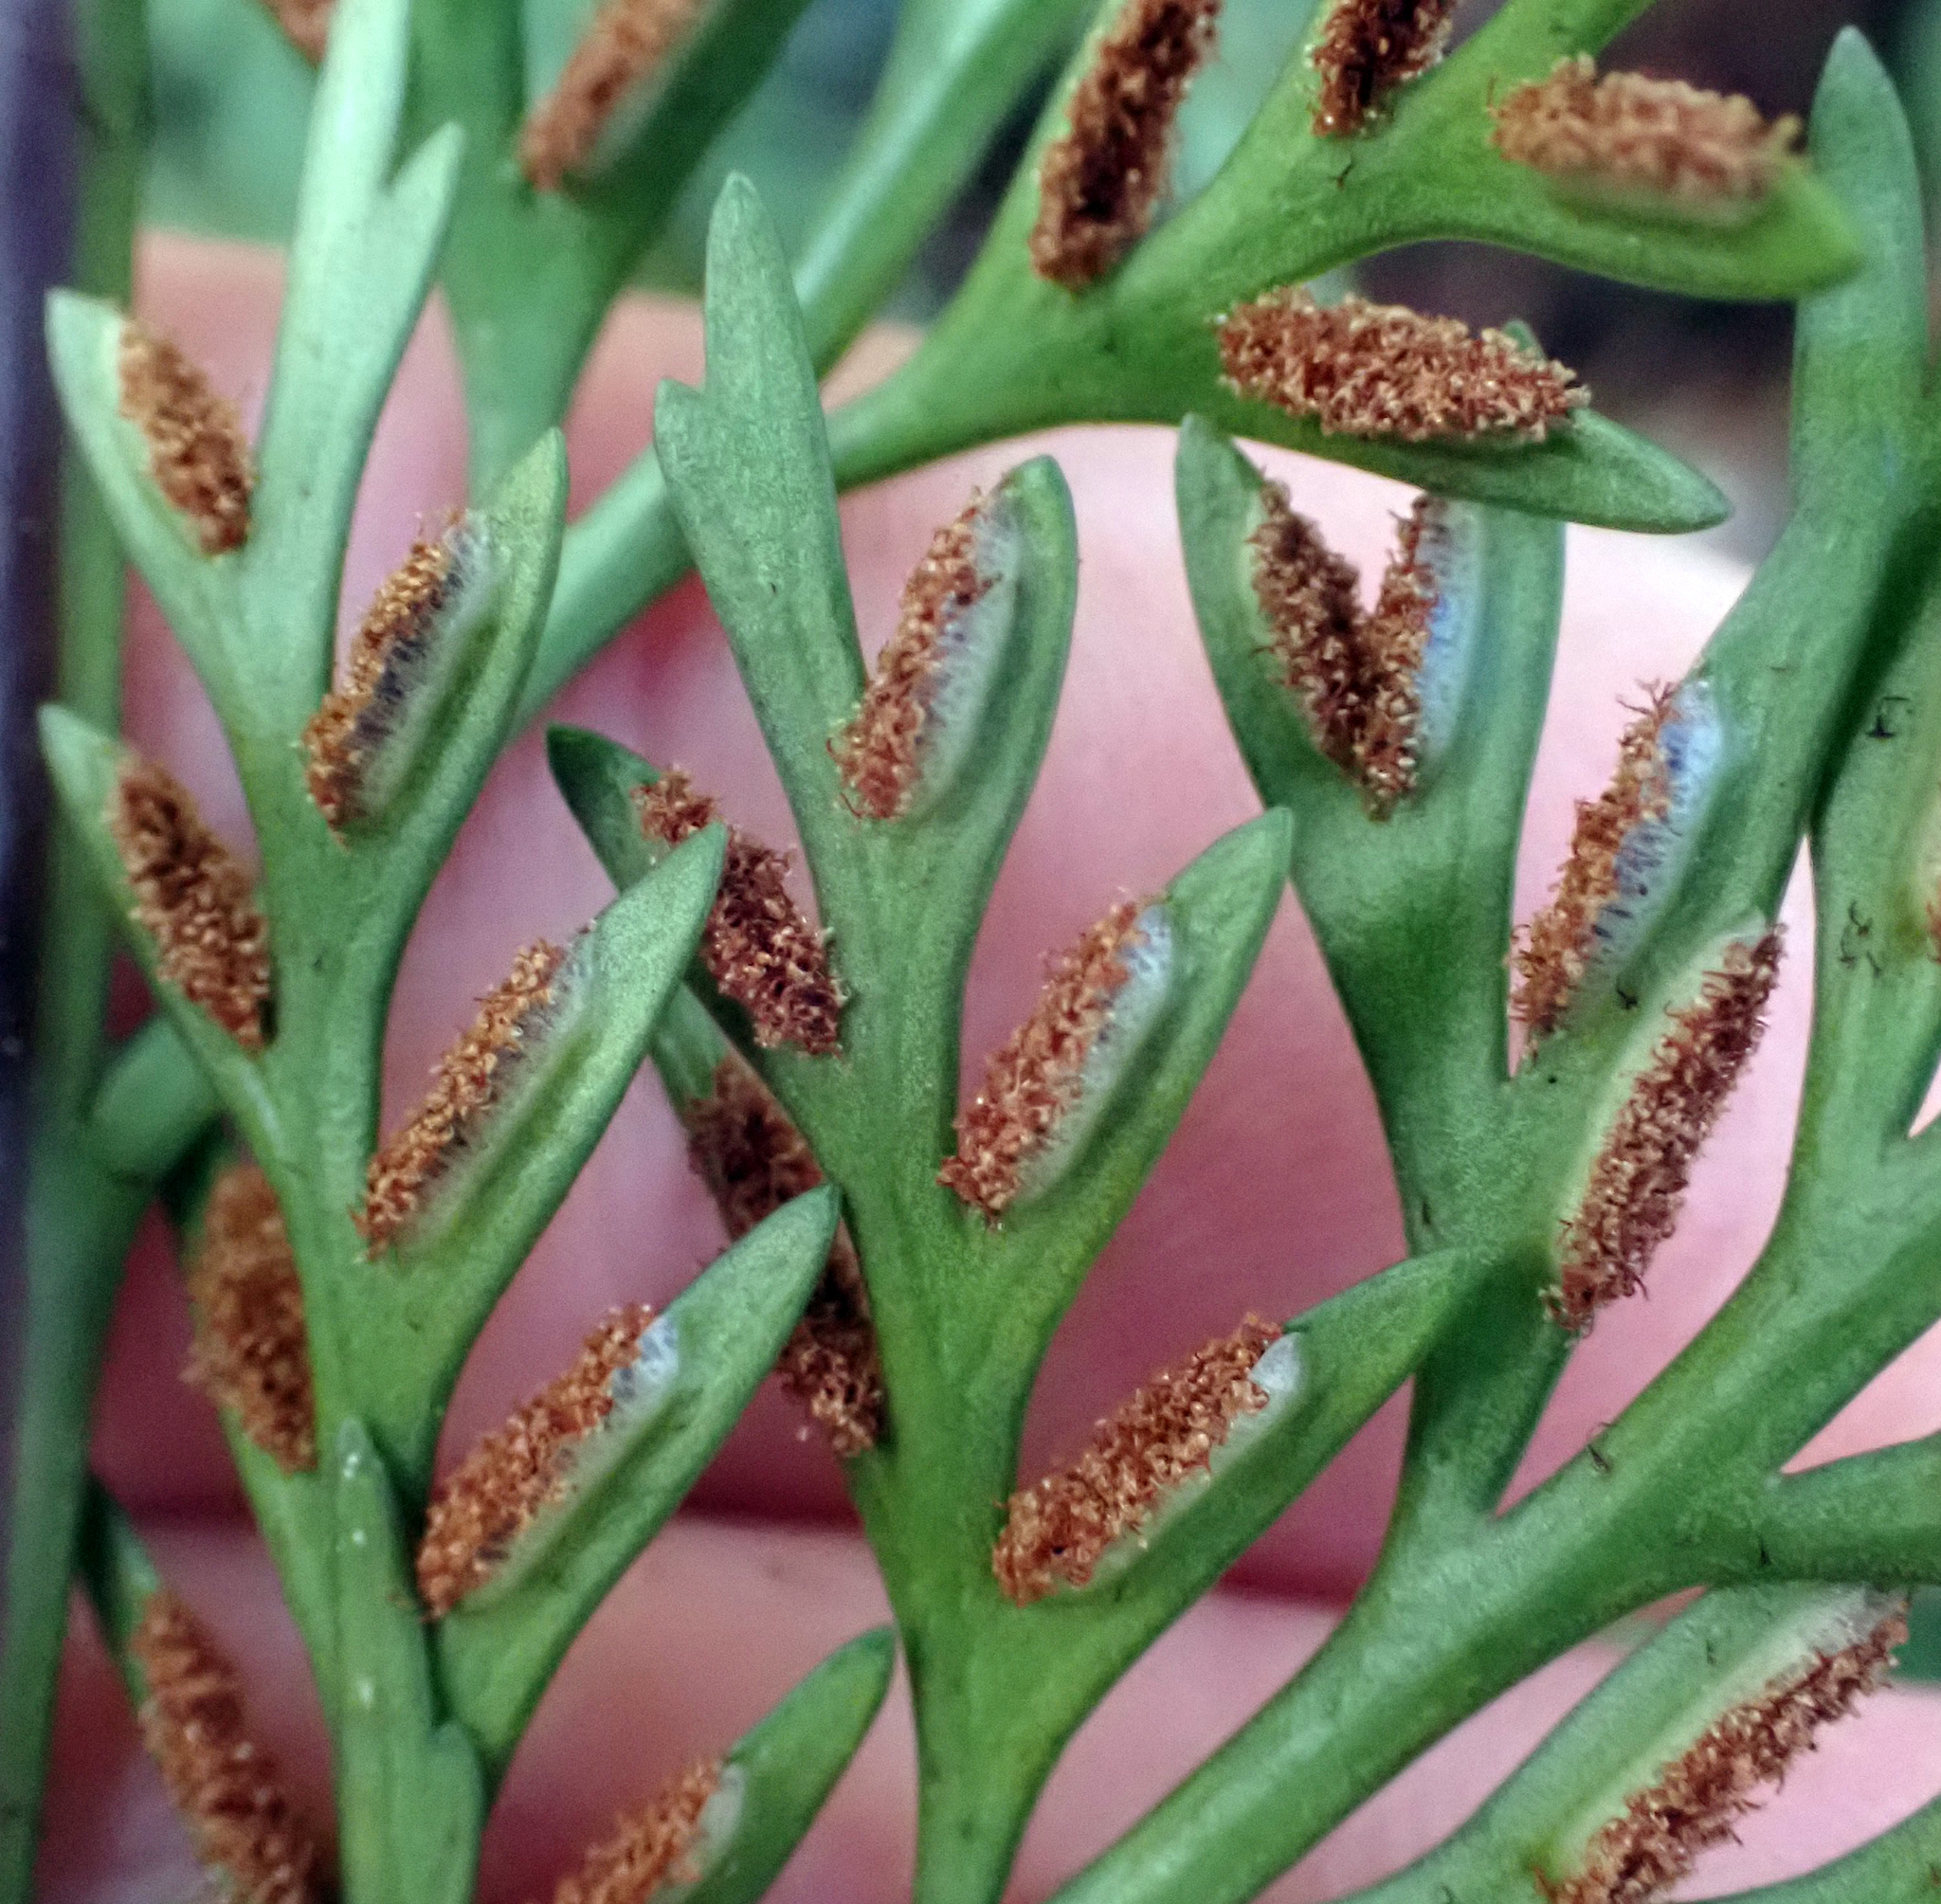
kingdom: Plantae
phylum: Tracheophyta
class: Polypodiopsida
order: Polypodiales
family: Aspleniaceae
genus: Asplenium
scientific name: Asplenium appendiculatum
